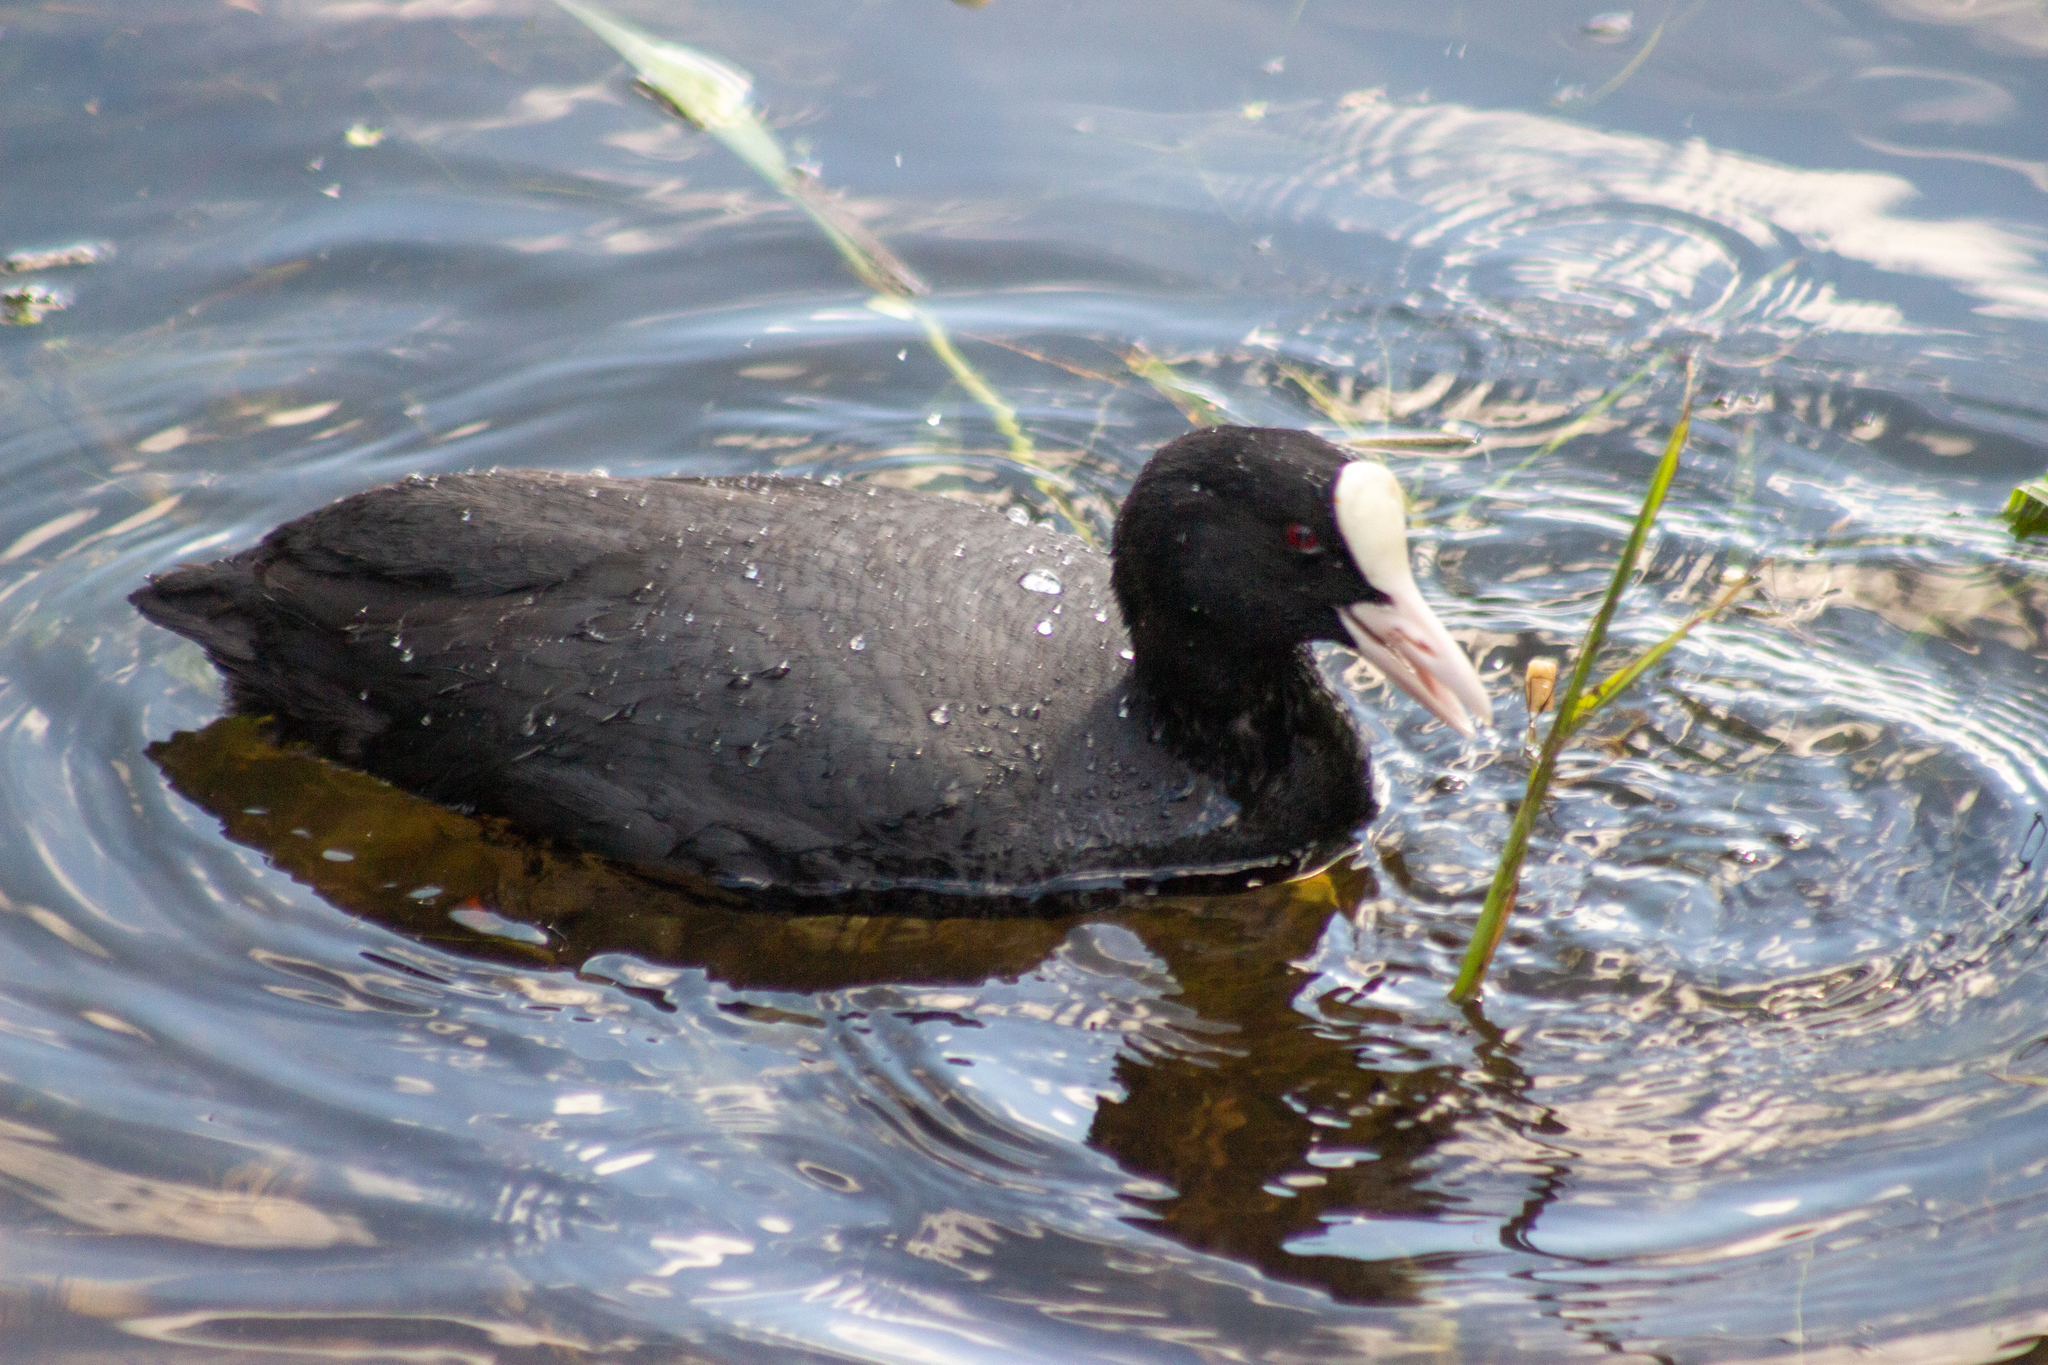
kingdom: Animalia
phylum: Chordata
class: Aves
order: Gruiformes
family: Rallidae
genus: Fulica
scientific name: Fulica atra
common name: Eurasian coot
